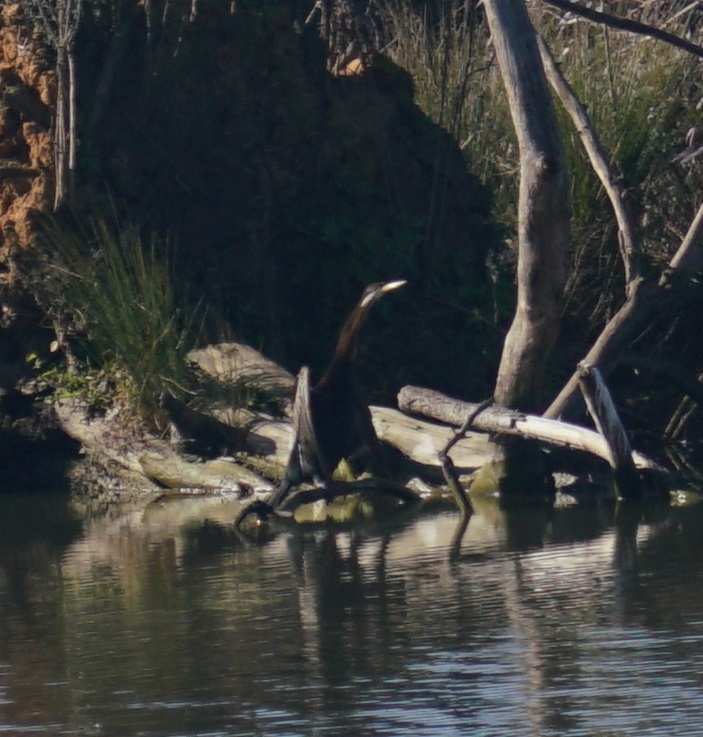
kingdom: Animalia
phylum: Chordata
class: Aves
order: Suliformes
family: Anhingidae
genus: Anhinga
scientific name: Anhinga novaehollandiae
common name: Australasian darter
